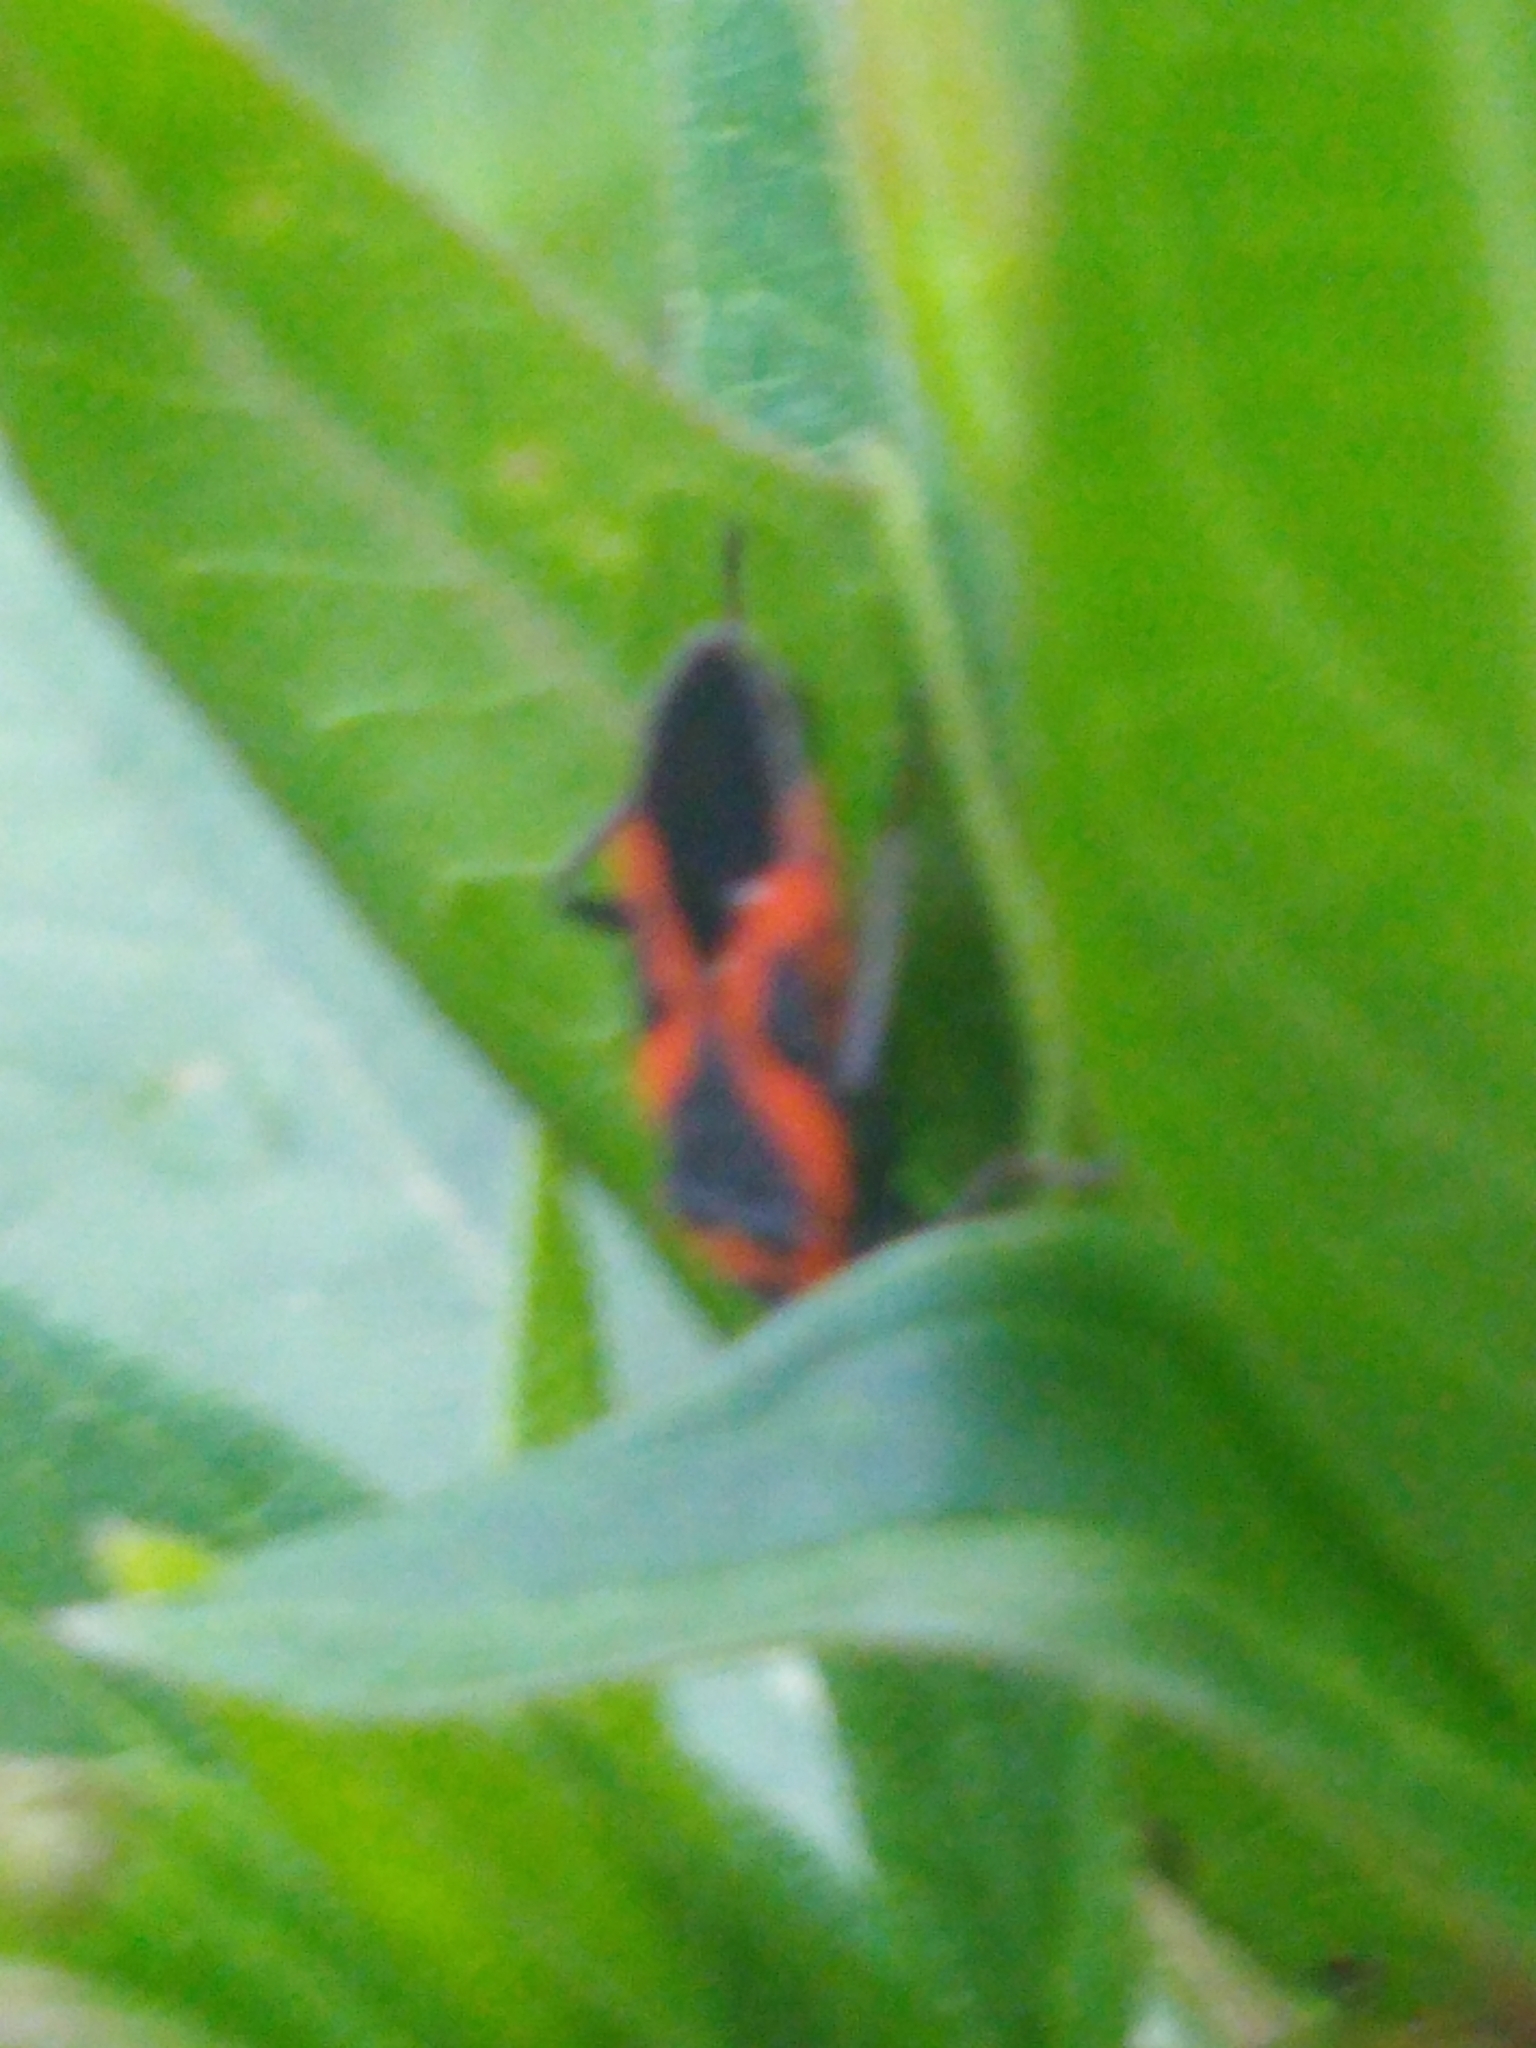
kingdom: Animalia
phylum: Arthropoda
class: Insecta
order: Hemiptera
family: Lygaeidae
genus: Lygaeus
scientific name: Lygaeus kalmii
